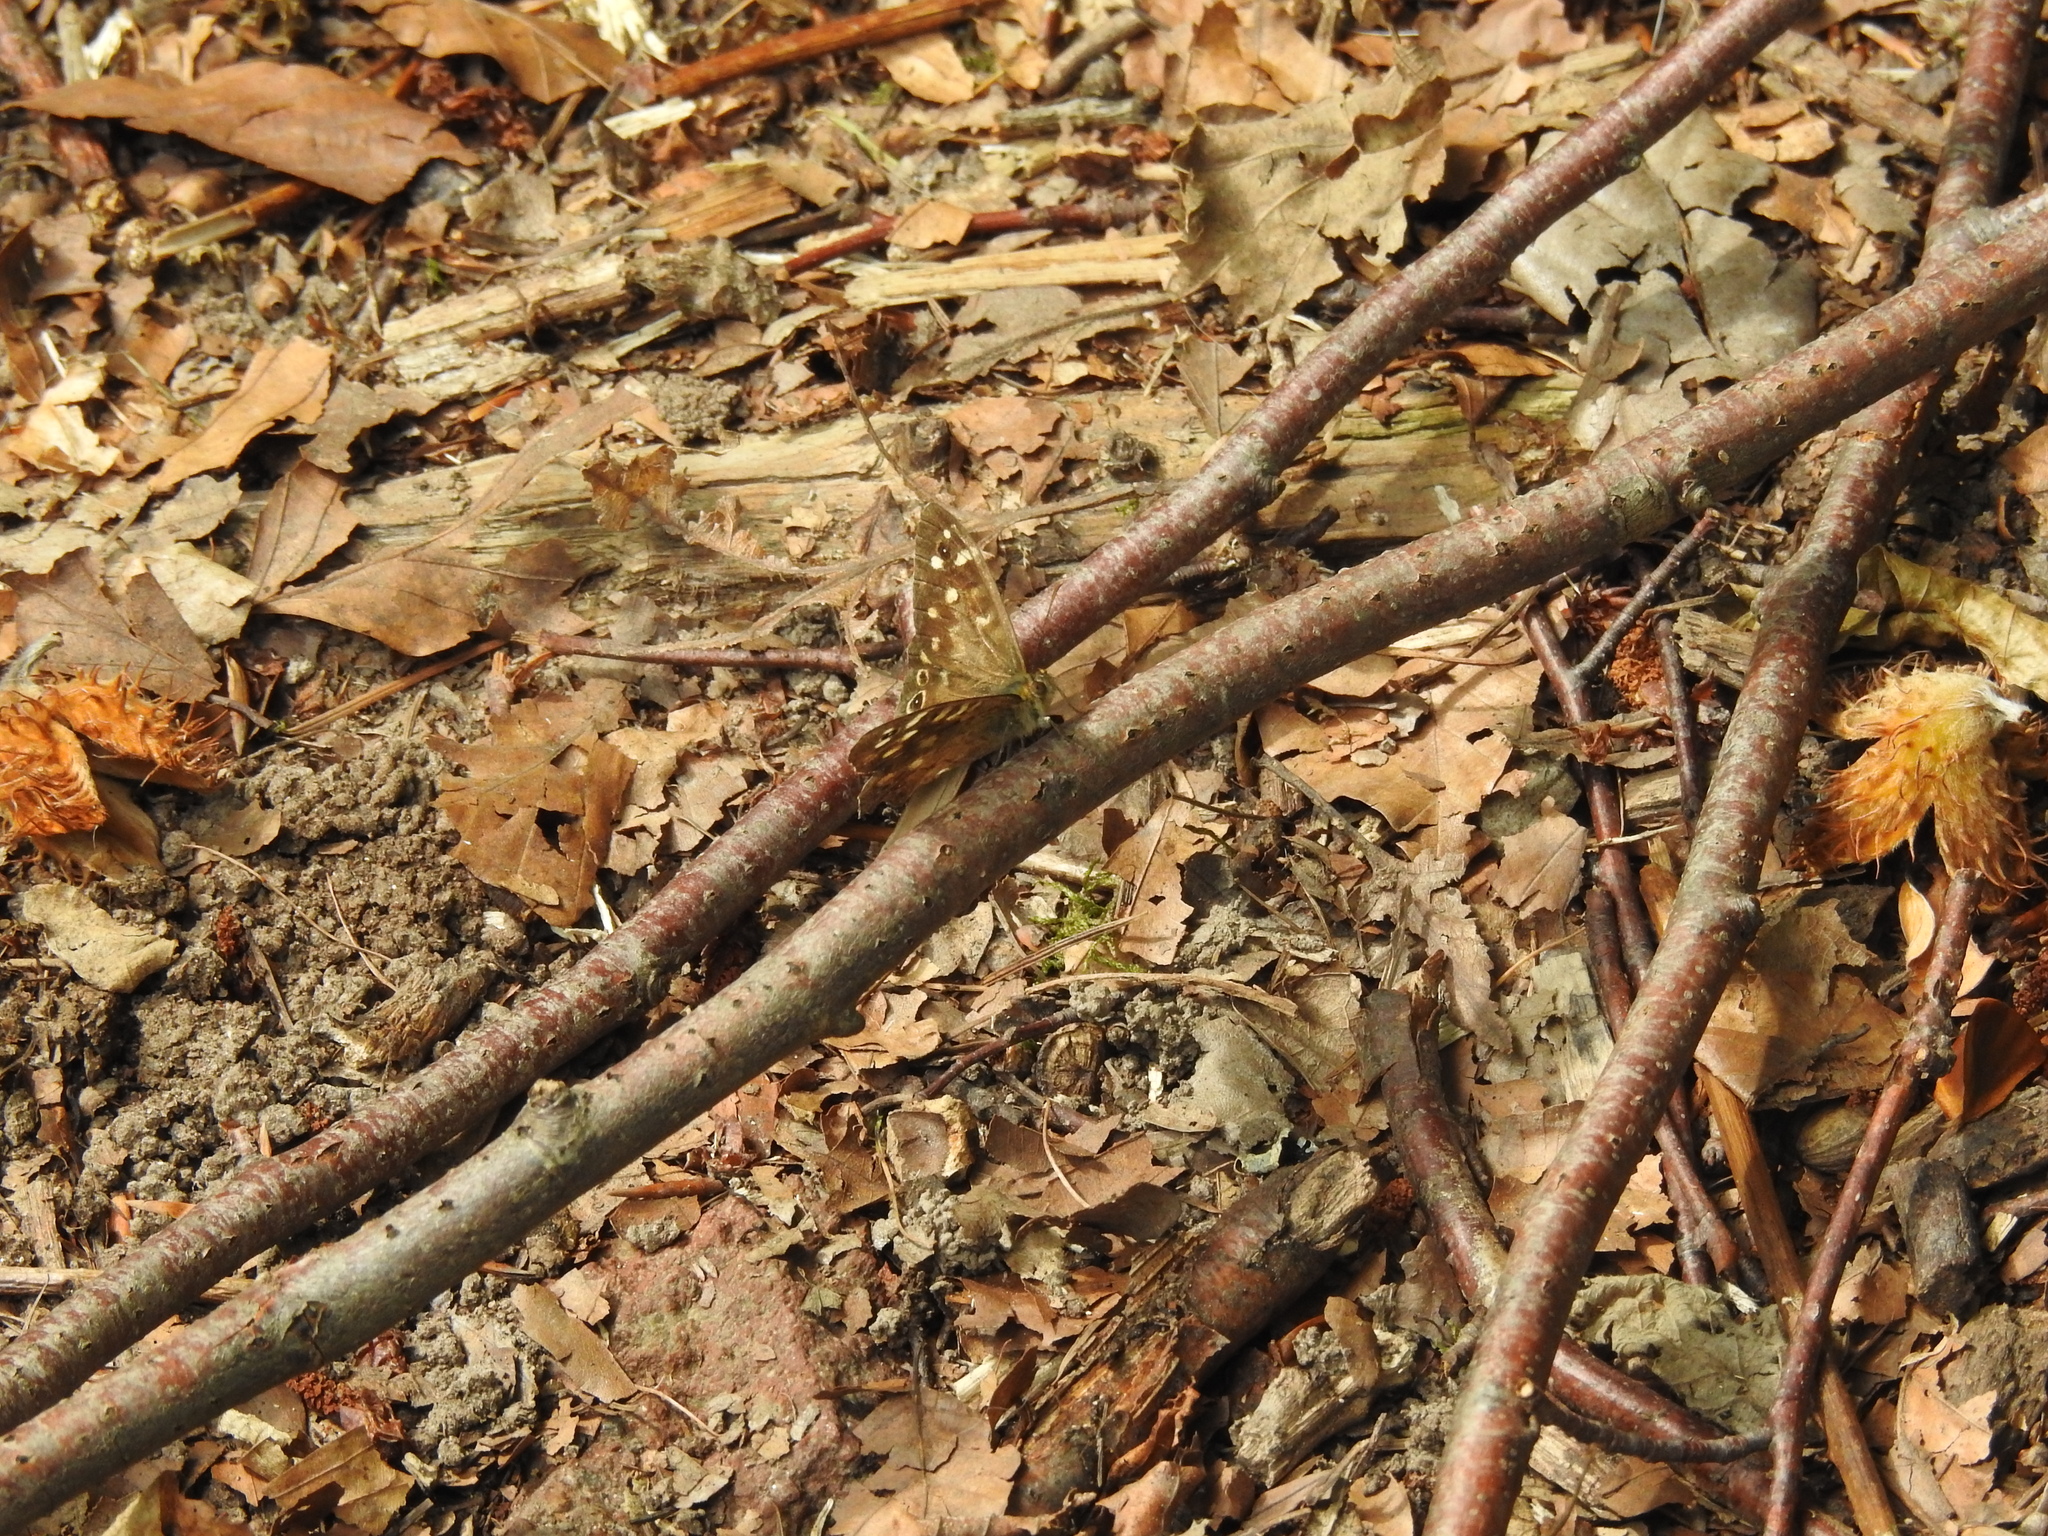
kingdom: Animalia
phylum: Arthropoda
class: Insecta
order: Lepidoptera
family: Nymphalidae
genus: Pararge
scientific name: Pararge aegeria
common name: Speckled wood
